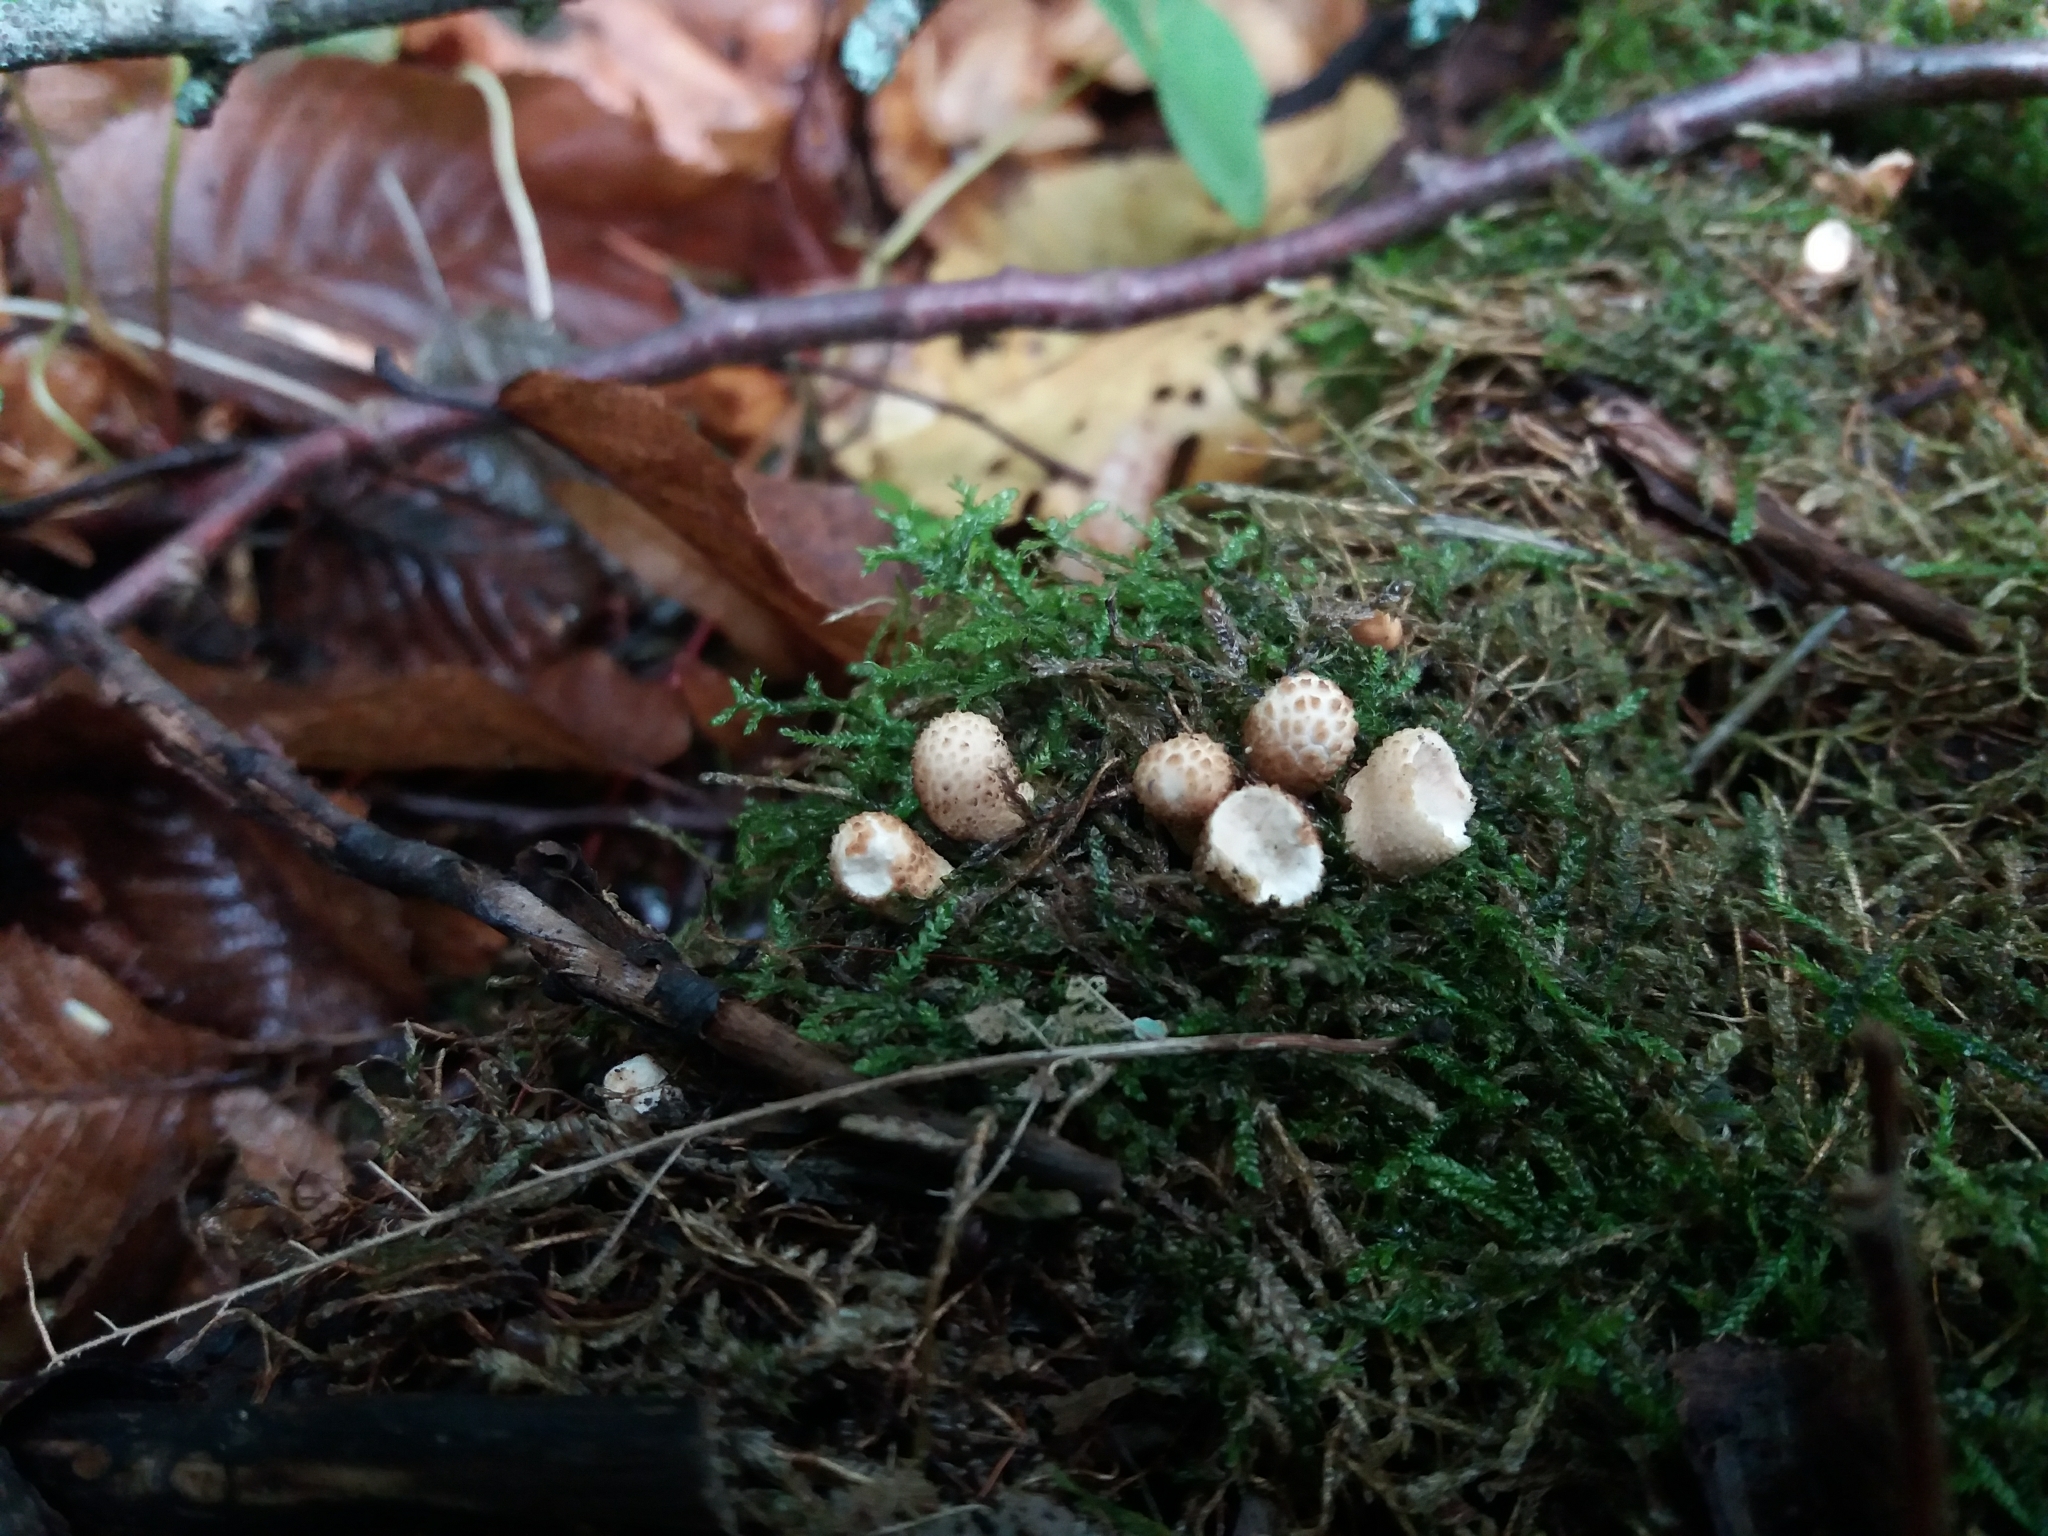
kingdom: Fungi
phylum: Basidiomycota
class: Agaricomycetes
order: Agaricales
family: Lycoperdaceae
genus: Apioperdon
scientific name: Apioperdon pyriforme
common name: Pear-shaped puffball
